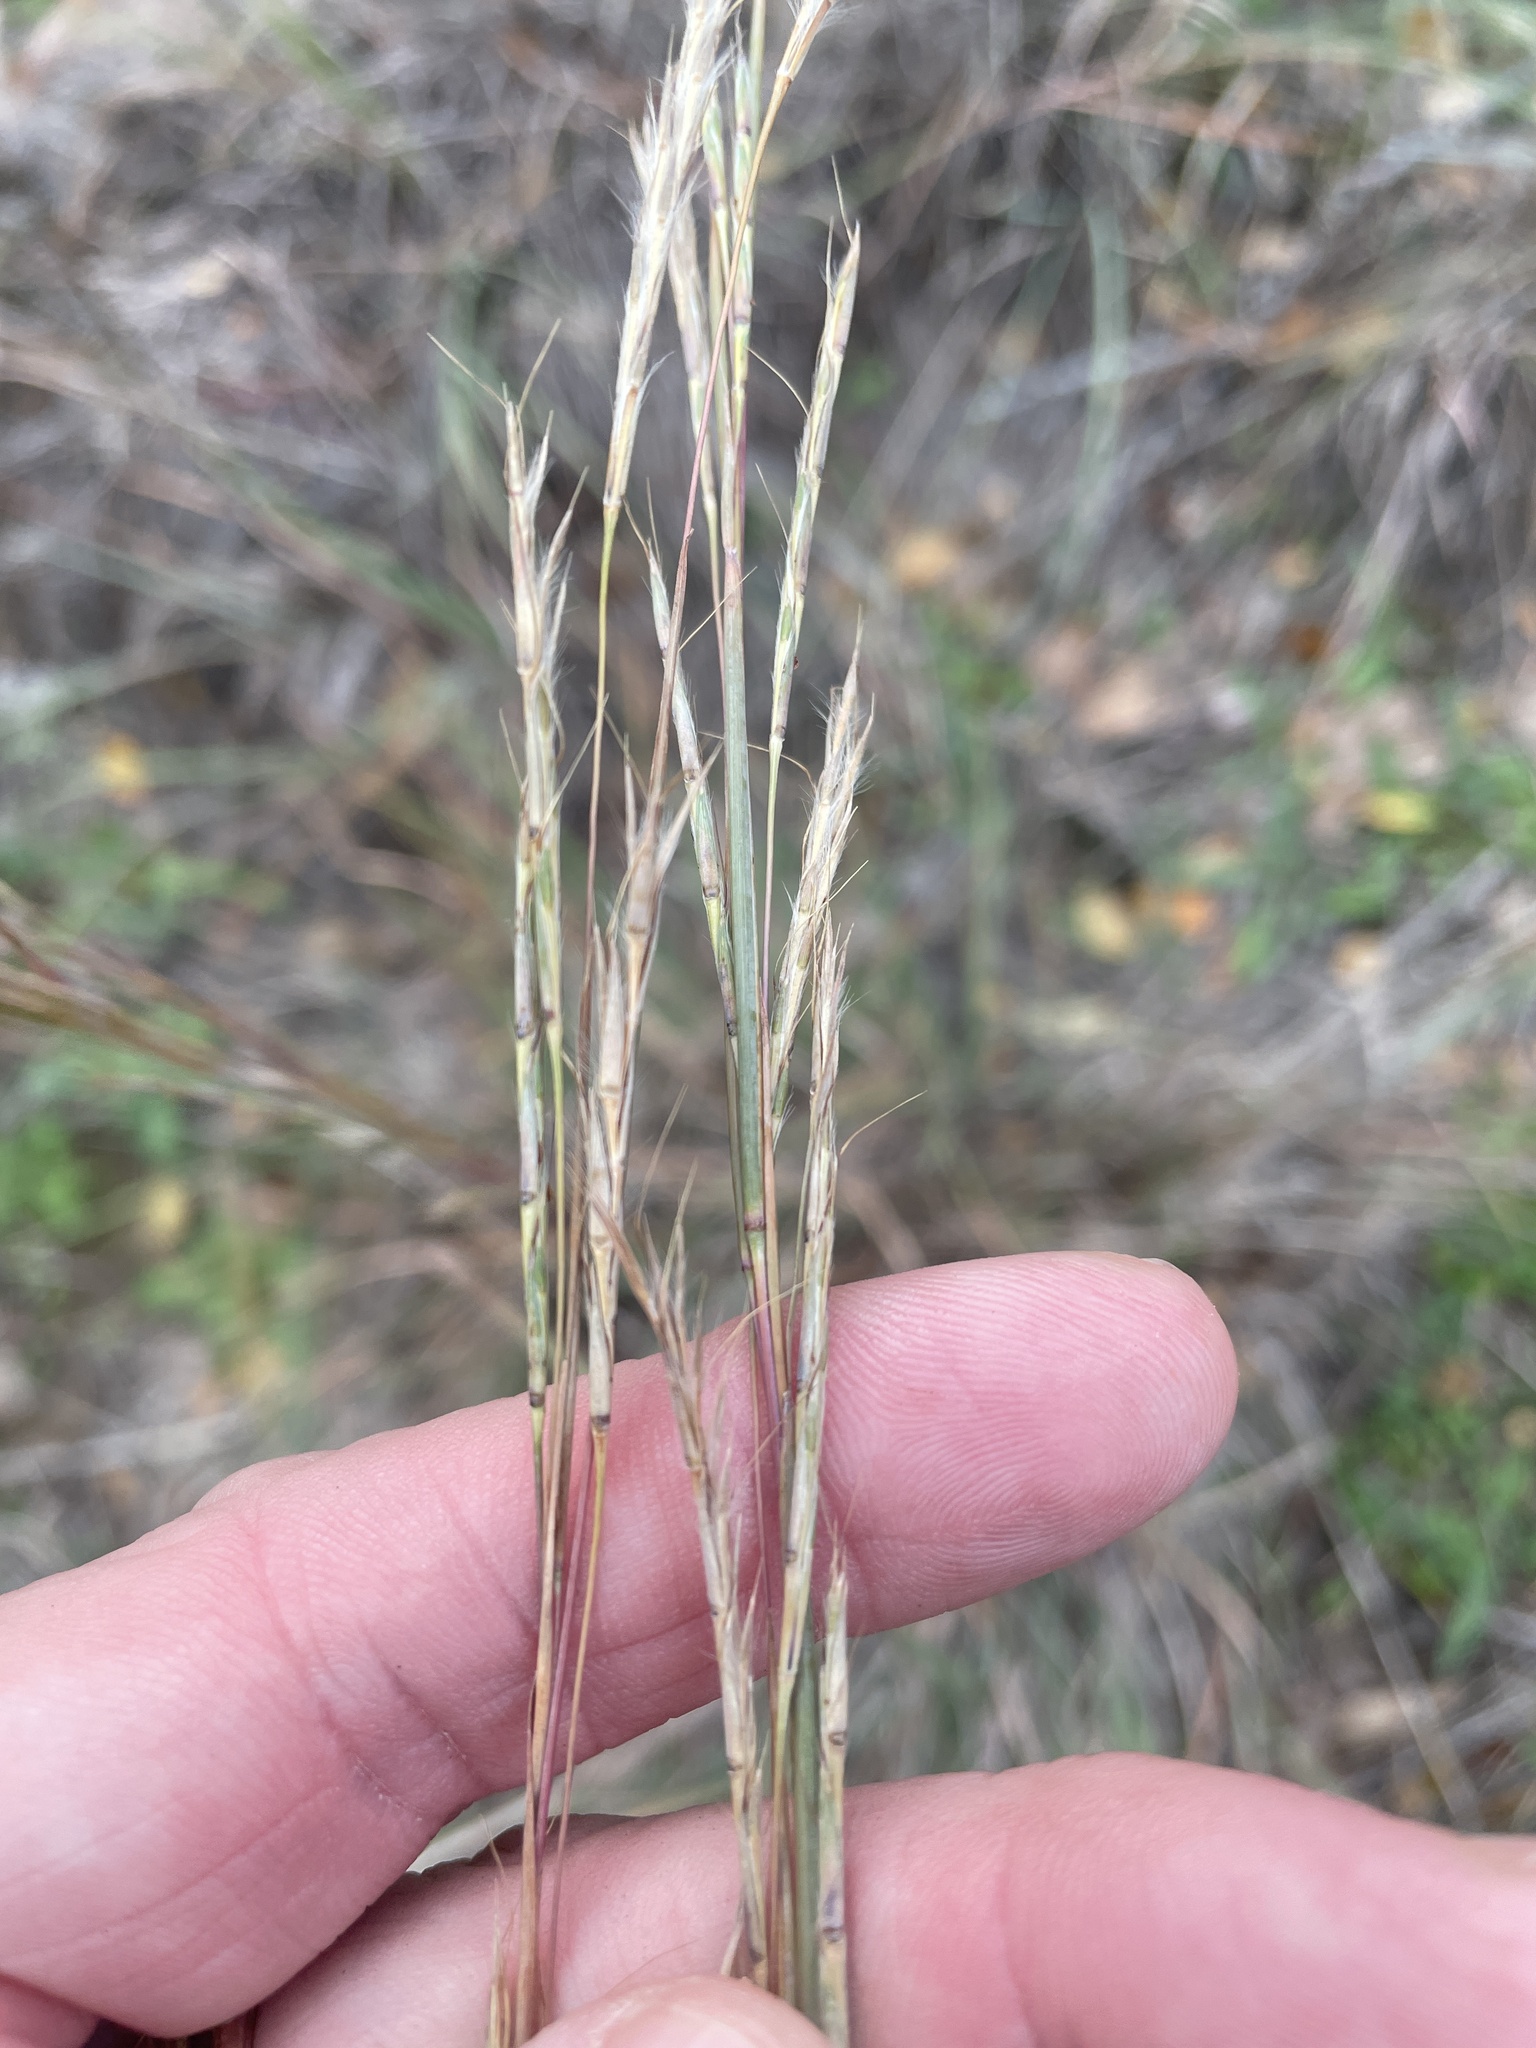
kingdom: Plantae
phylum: Tracheophyta
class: Liliopsida
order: Poales
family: Poaceae
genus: Schizachyrium
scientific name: Schizachyrium scoparium
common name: Little bluestem
